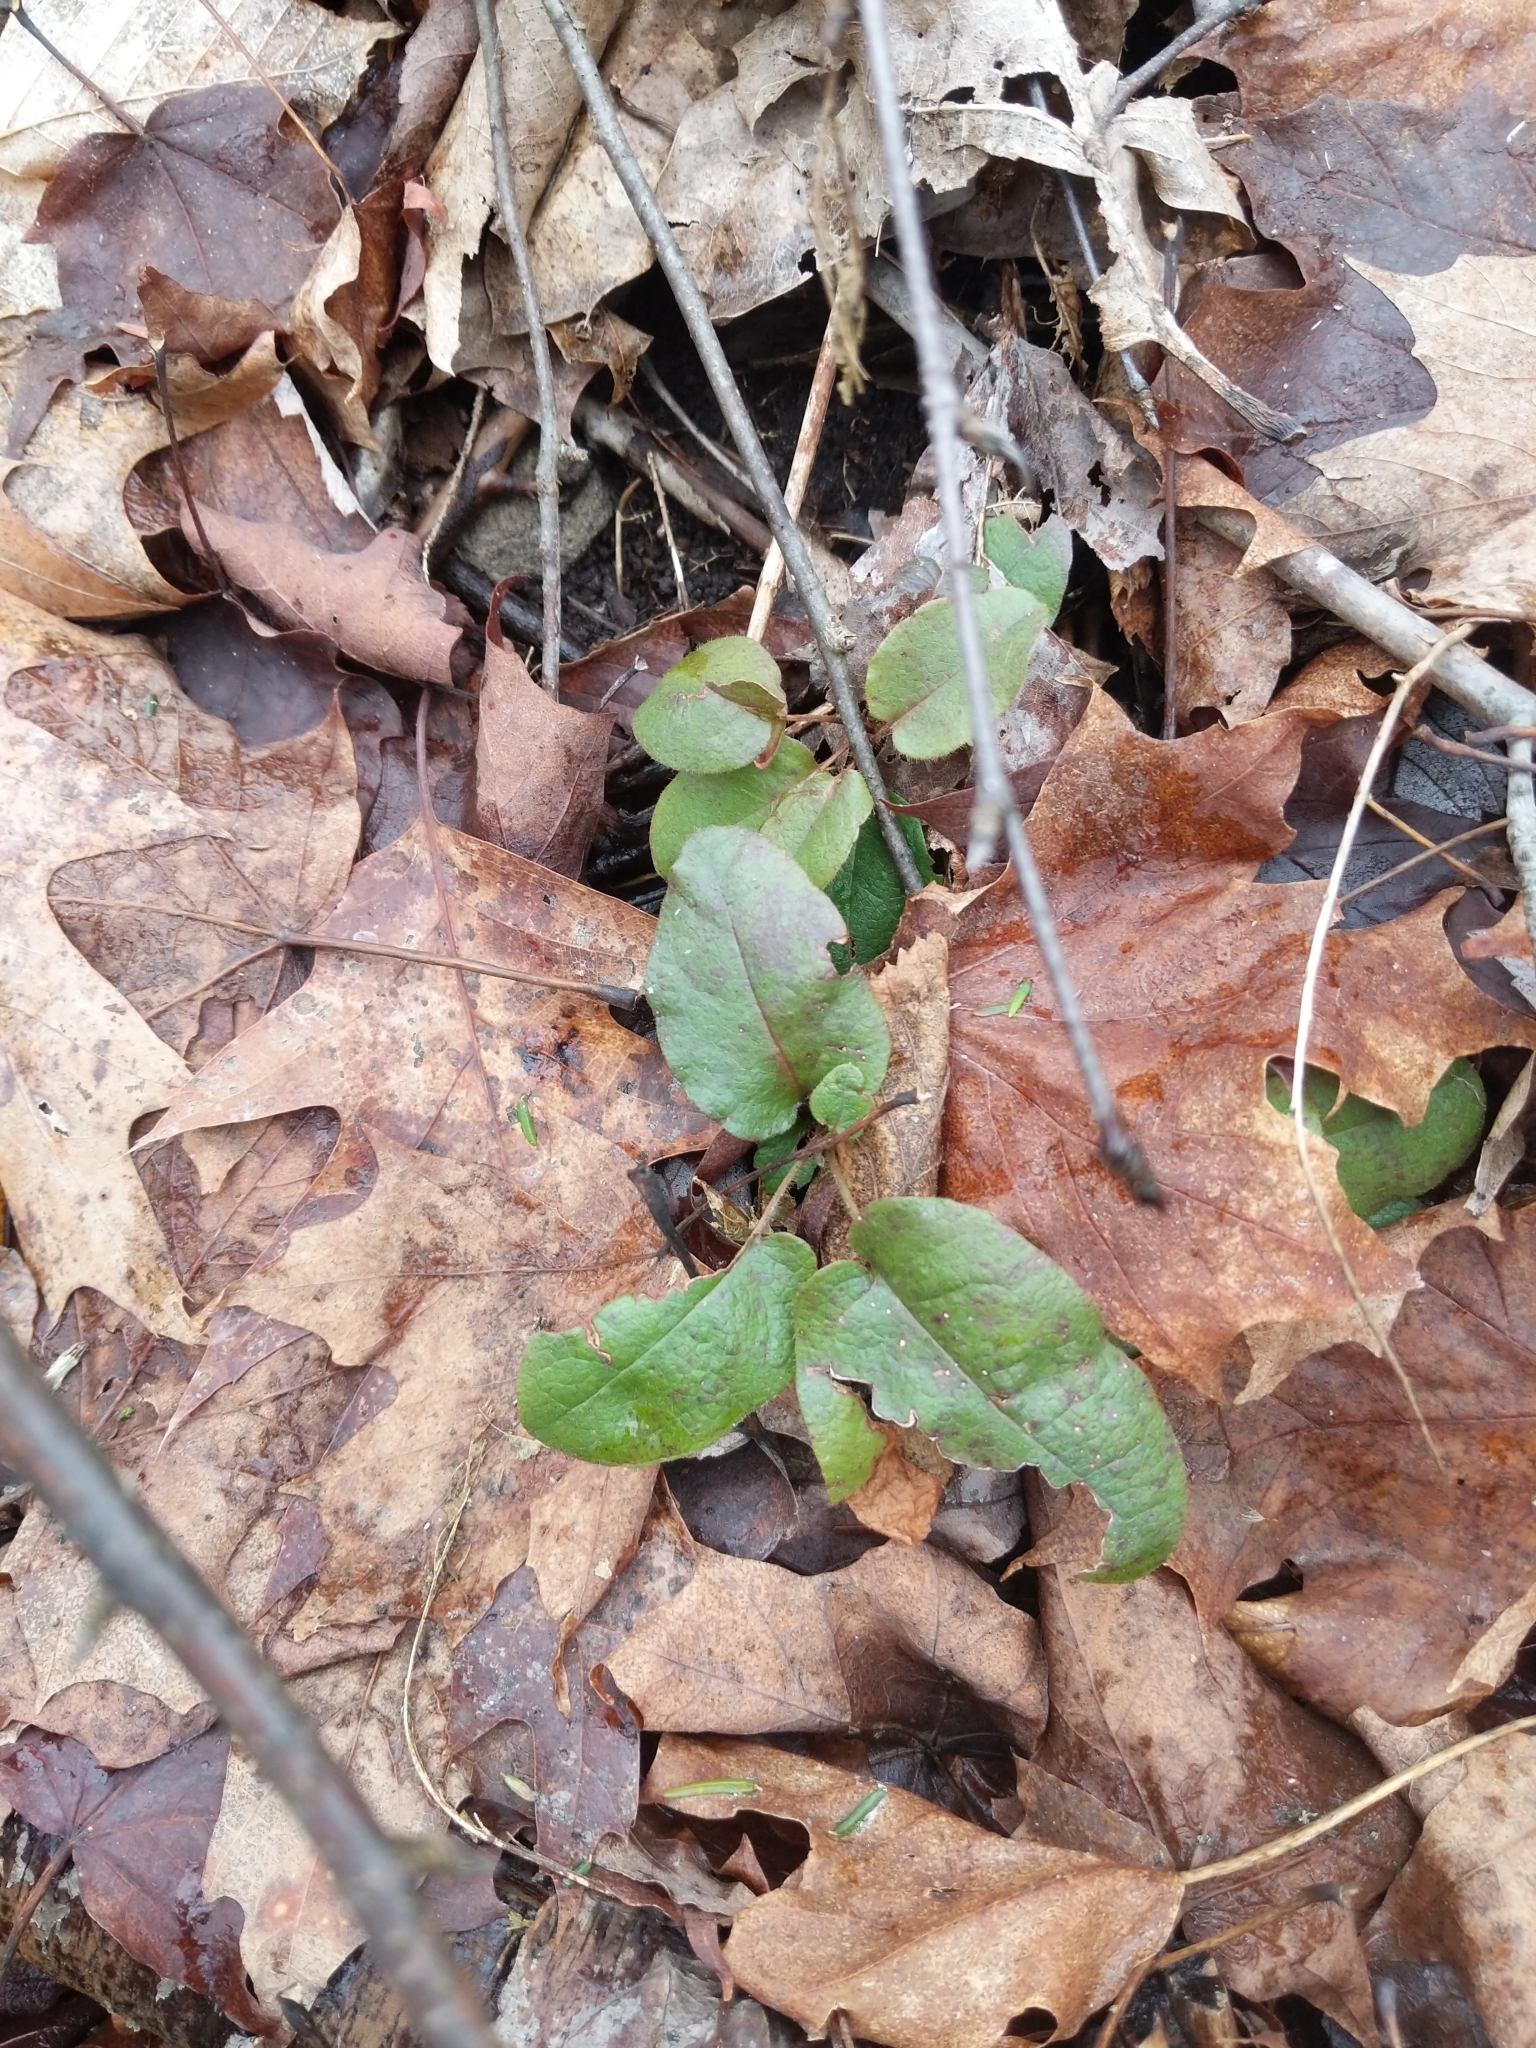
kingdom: Plantae
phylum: Tracheophyta
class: Magnoliopsida
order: Ericales
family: Ericaceae
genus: Epigaea
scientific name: Epigaea repens
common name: Gravelroot
